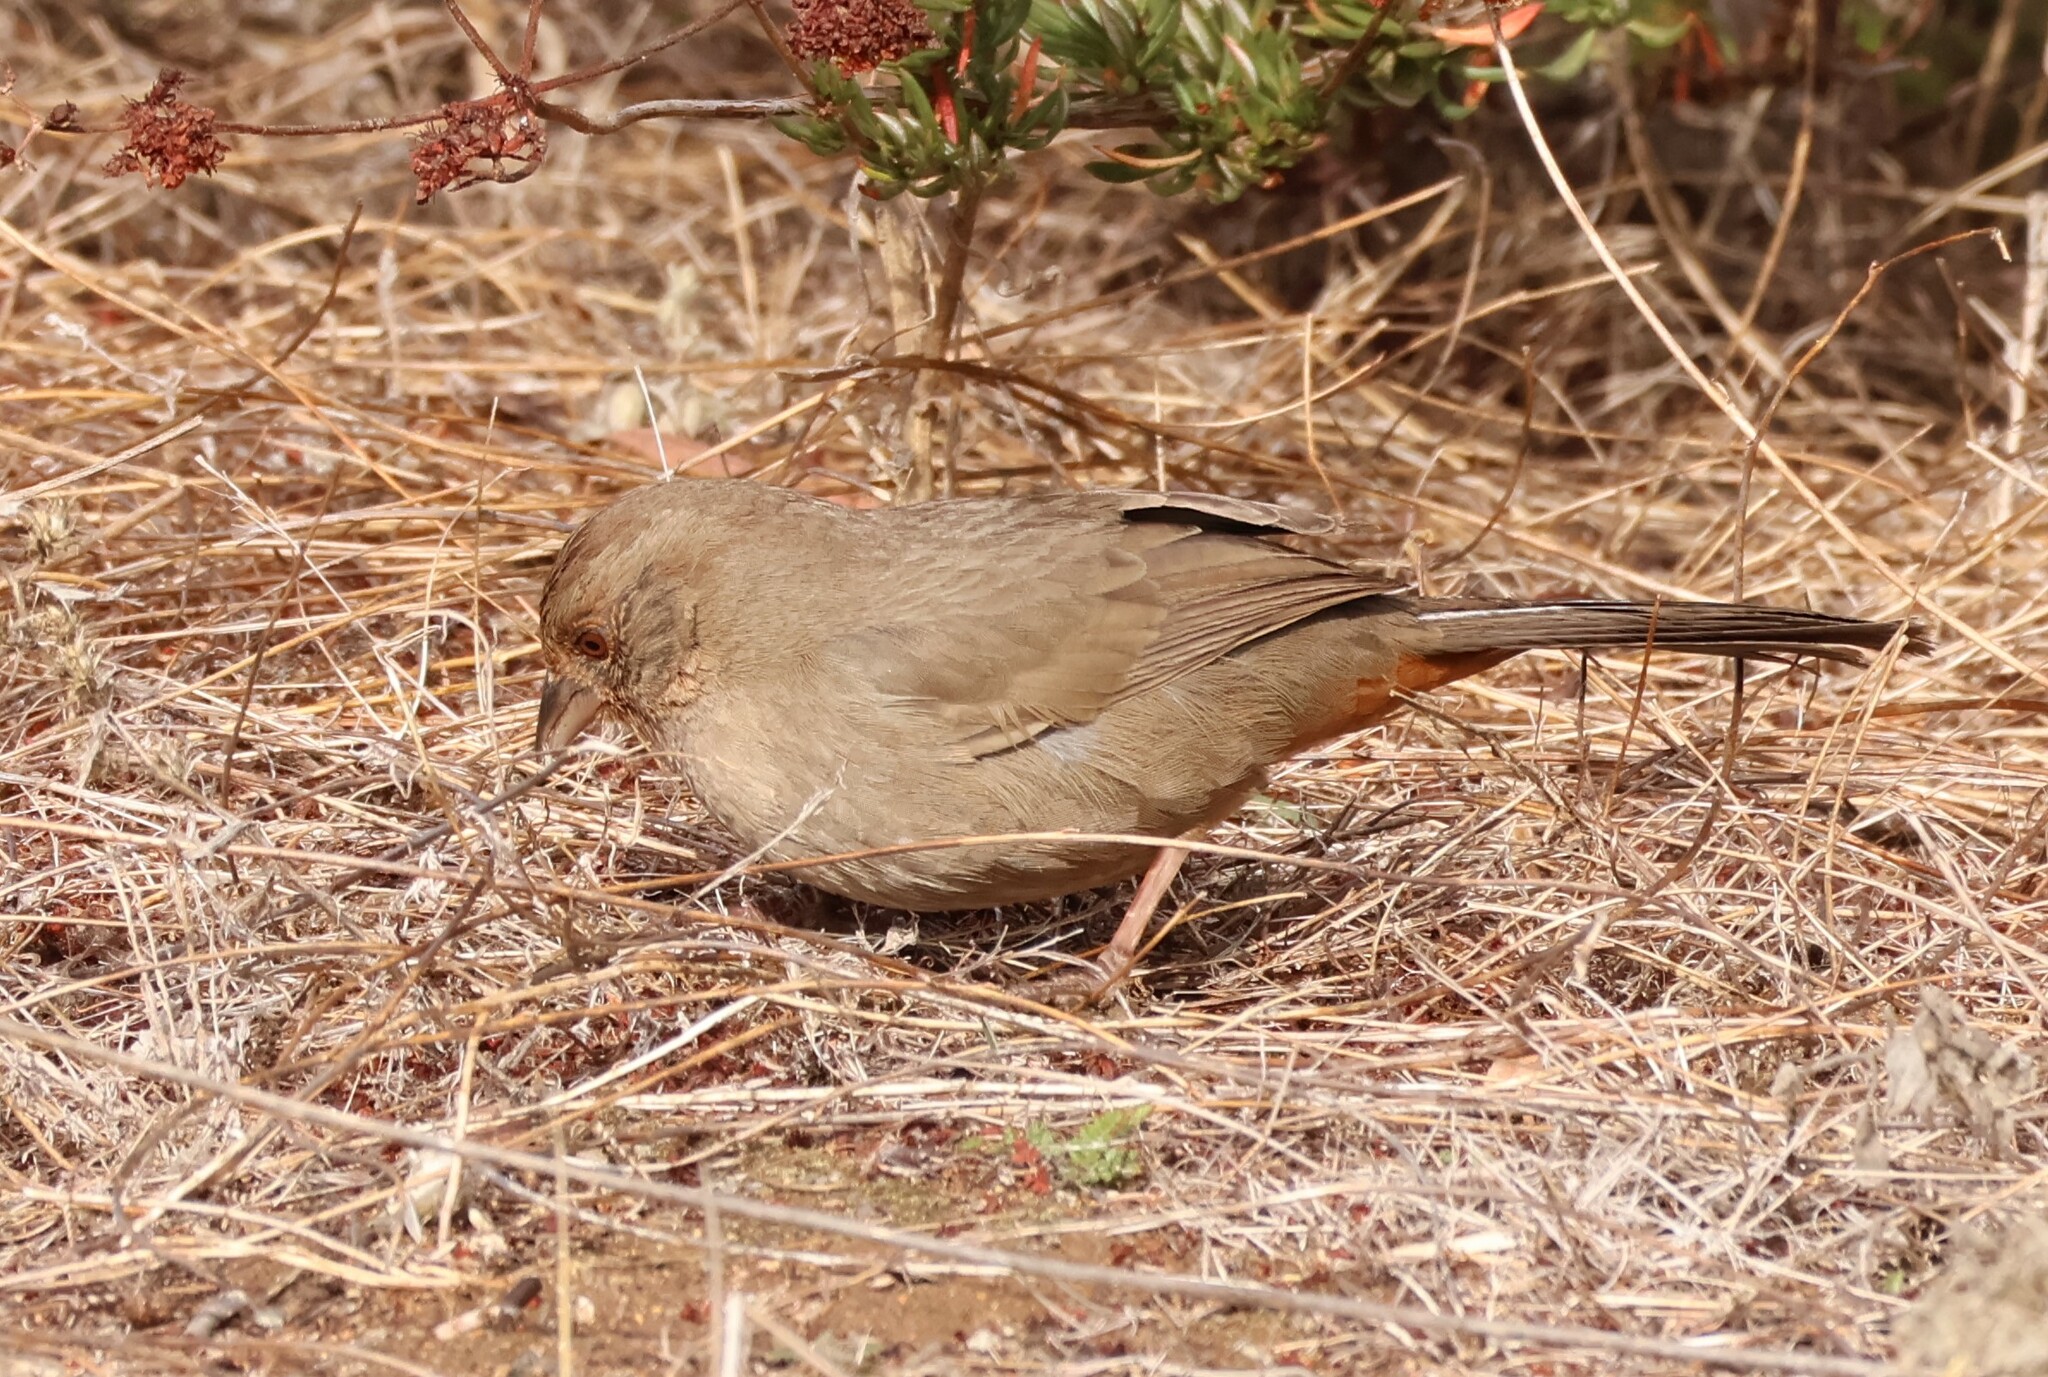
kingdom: Animalia
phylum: Chordata
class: Aves
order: Passeriformes
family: Passerellidae
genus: Melozone
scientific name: Melozone crissalis
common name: California towhee
